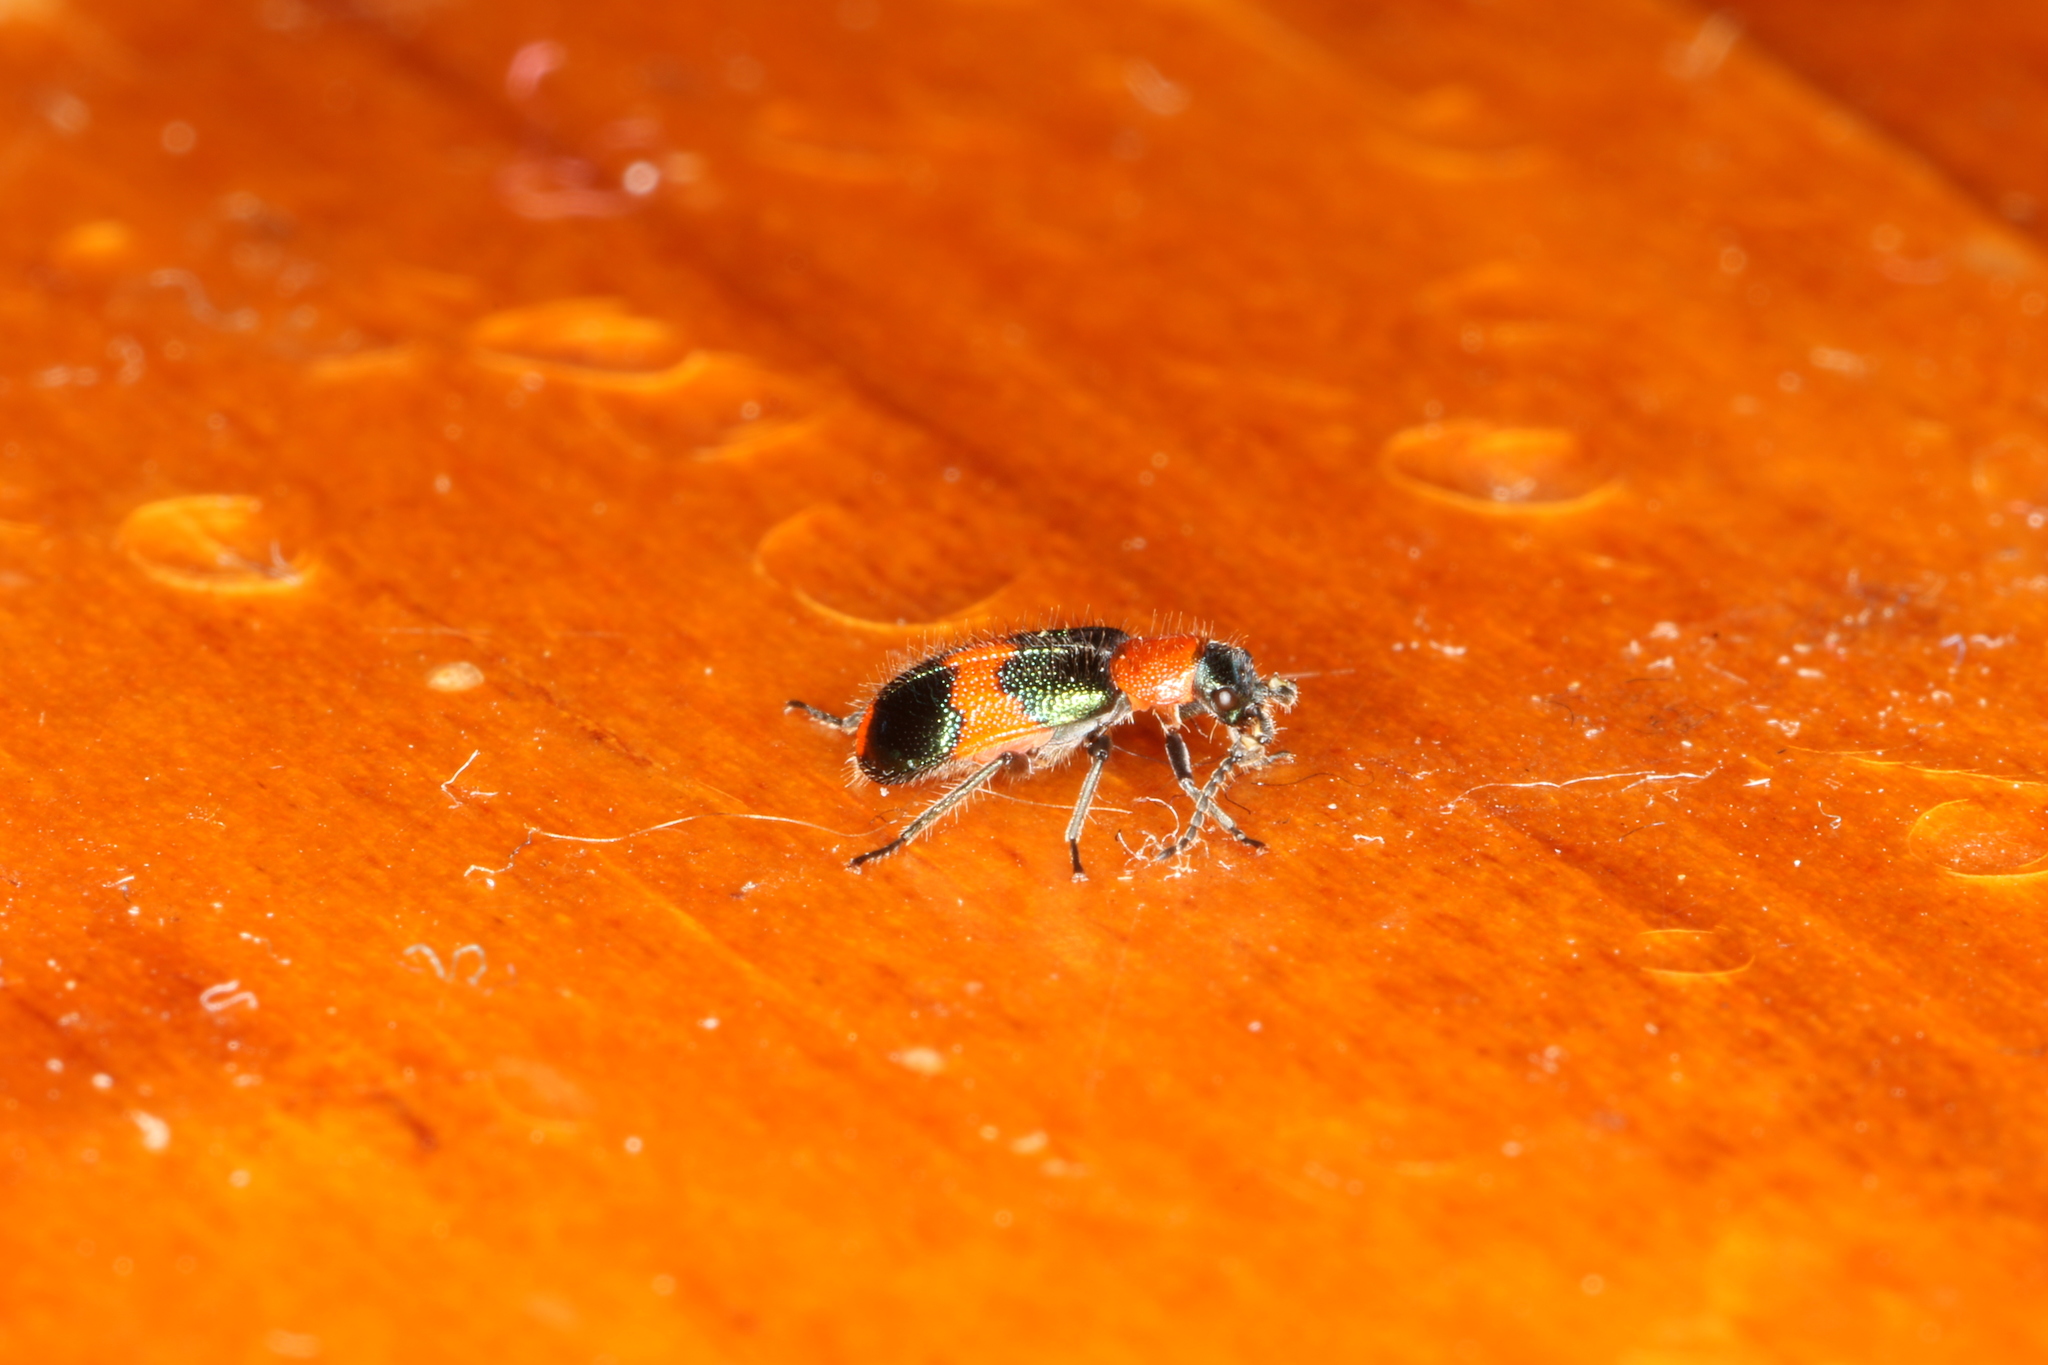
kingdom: Animalia
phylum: Arthropoda
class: Insecta
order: Coleoptera
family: Melyridae
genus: Dicranolaius
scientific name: Dicranolaius bellulus
